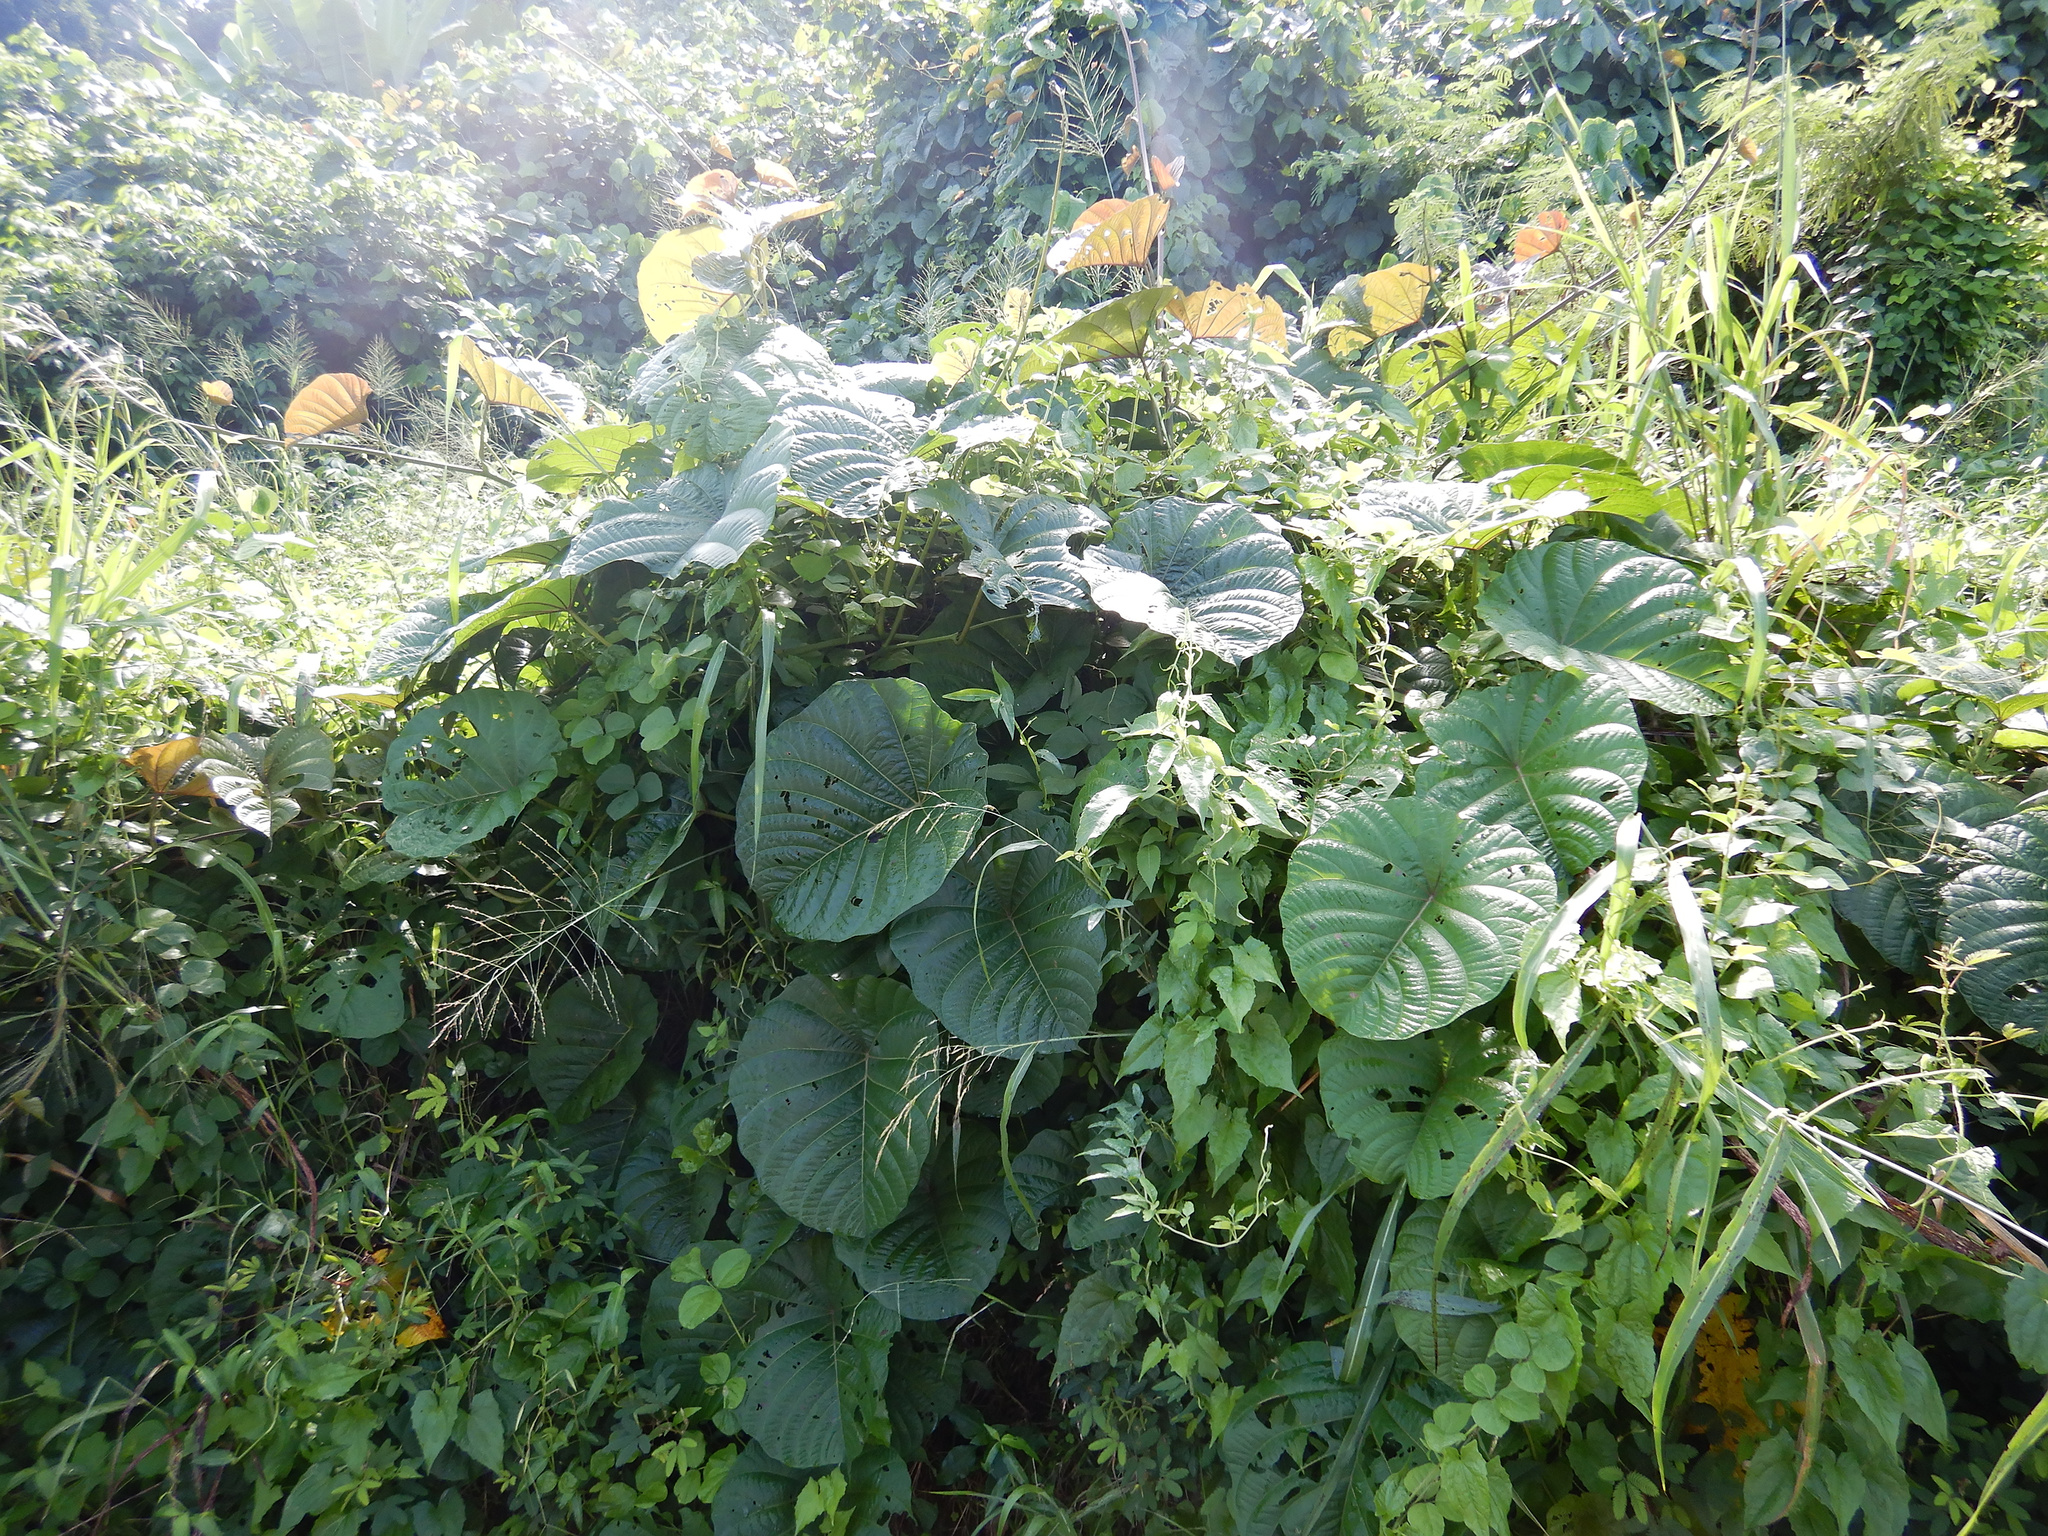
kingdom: Plantae
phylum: Tracheophyta
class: Magnoliopsida
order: Solanales
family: Convolvulaceae
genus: Decalobanthus
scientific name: Decalobanthus peltatus
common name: Merremia
